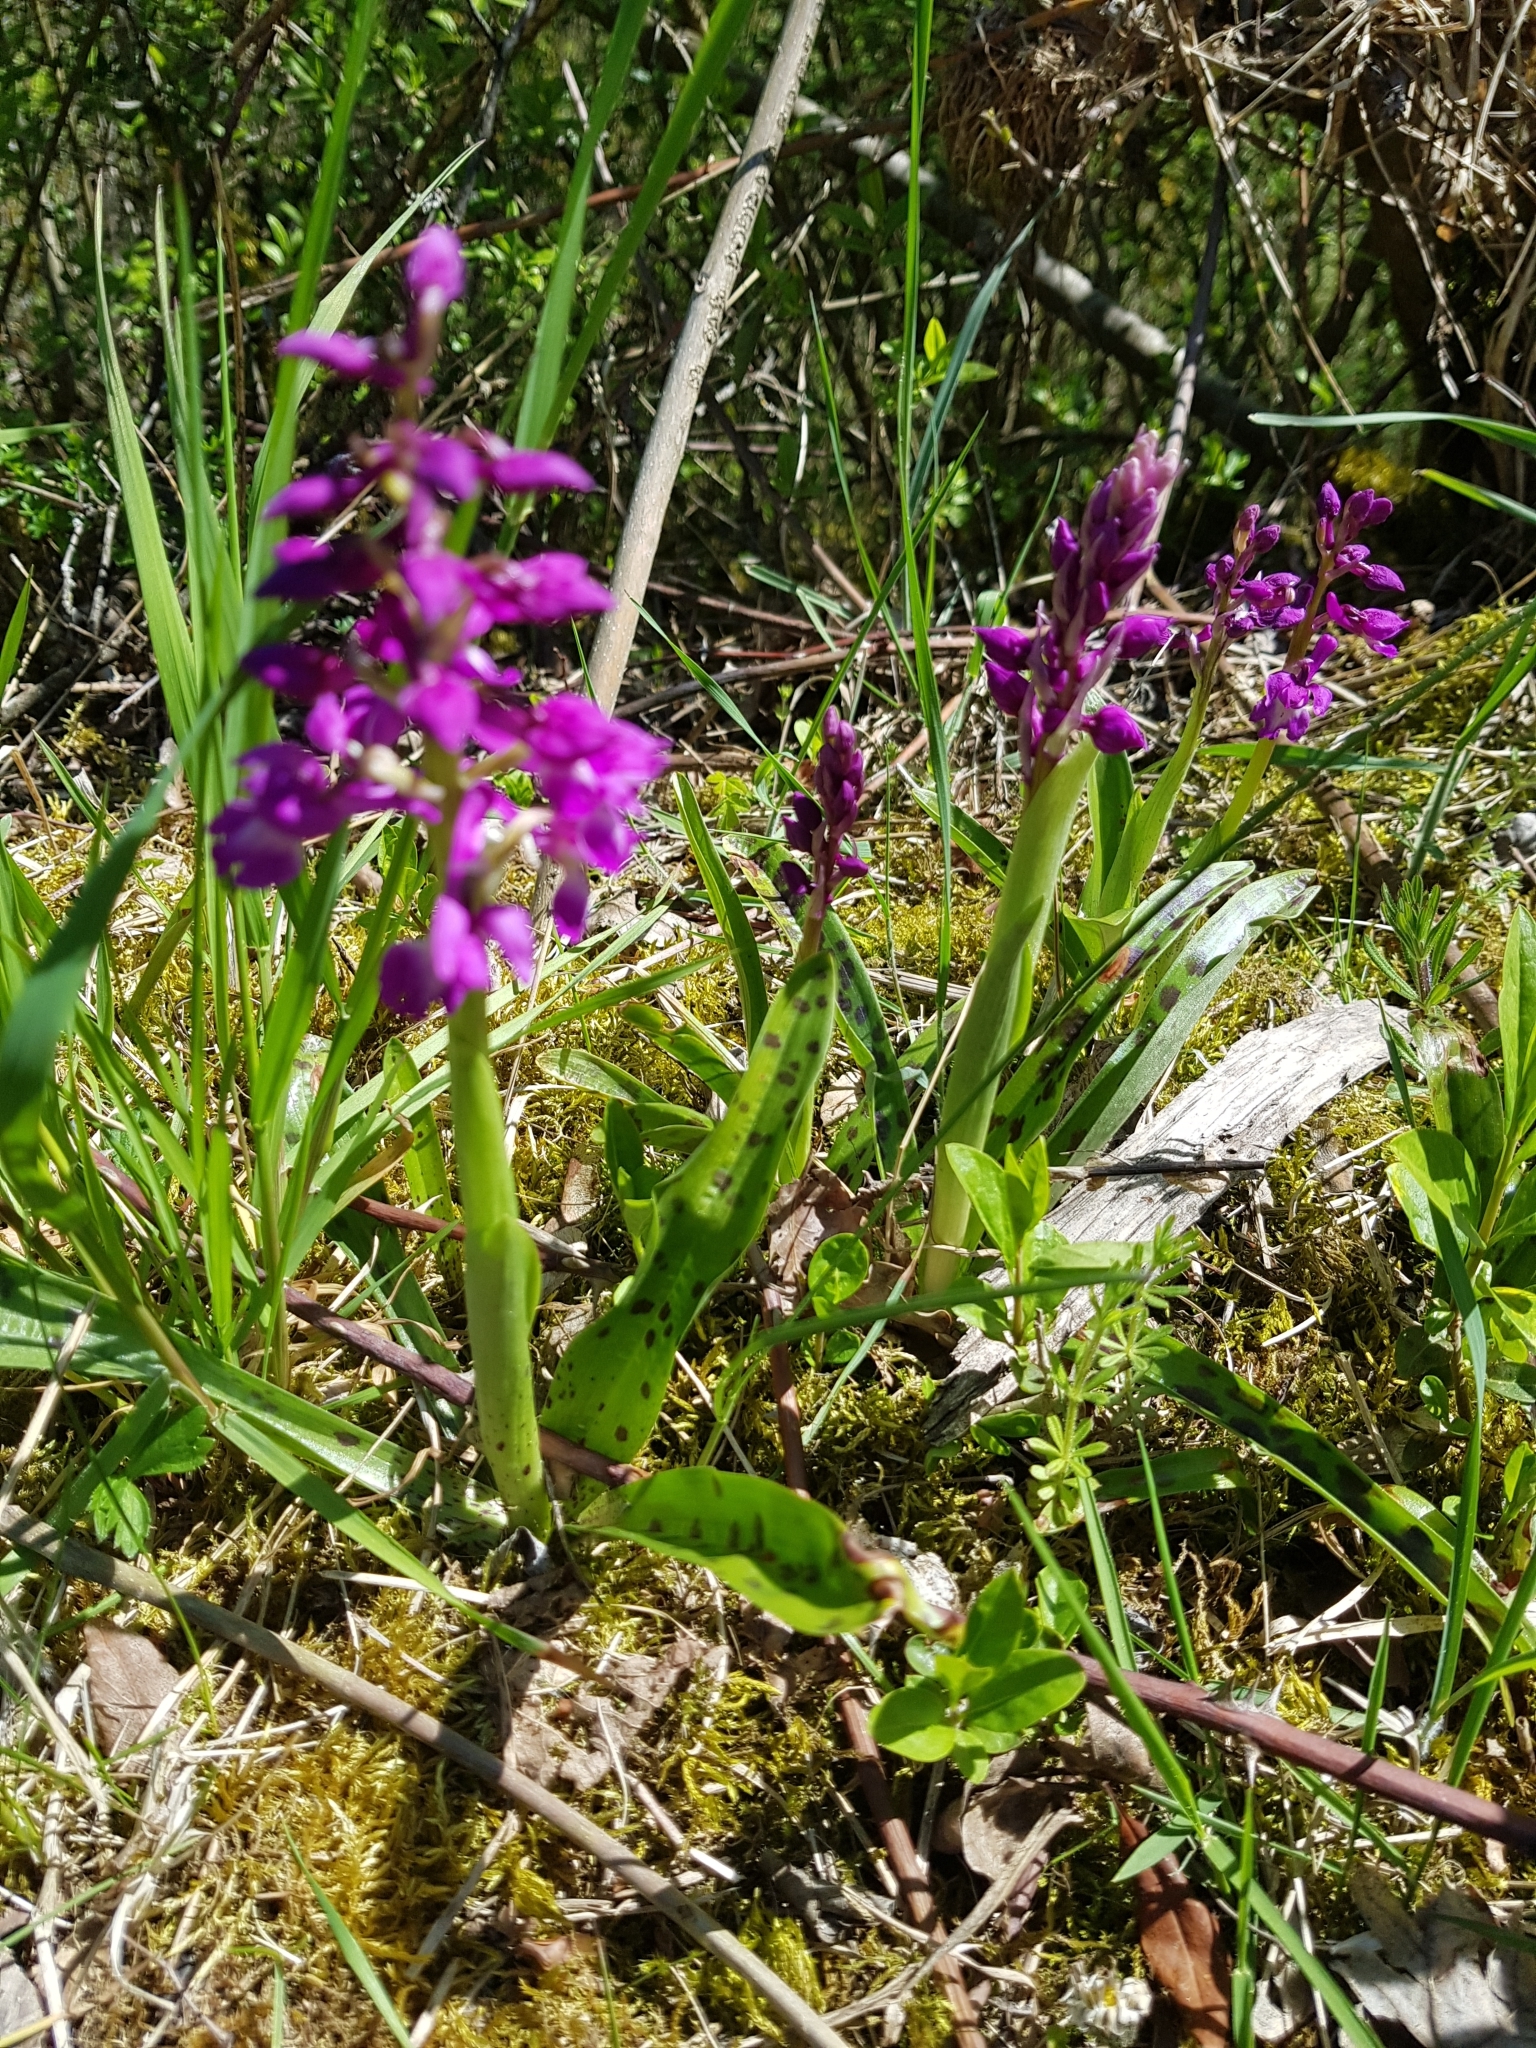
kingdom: Plantae
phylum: Tracheophyta
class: Liliopsida
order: Asparagales
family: Orchidaceae
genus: Orchis
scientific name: Orchis mascula
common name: Early-purple orchid
